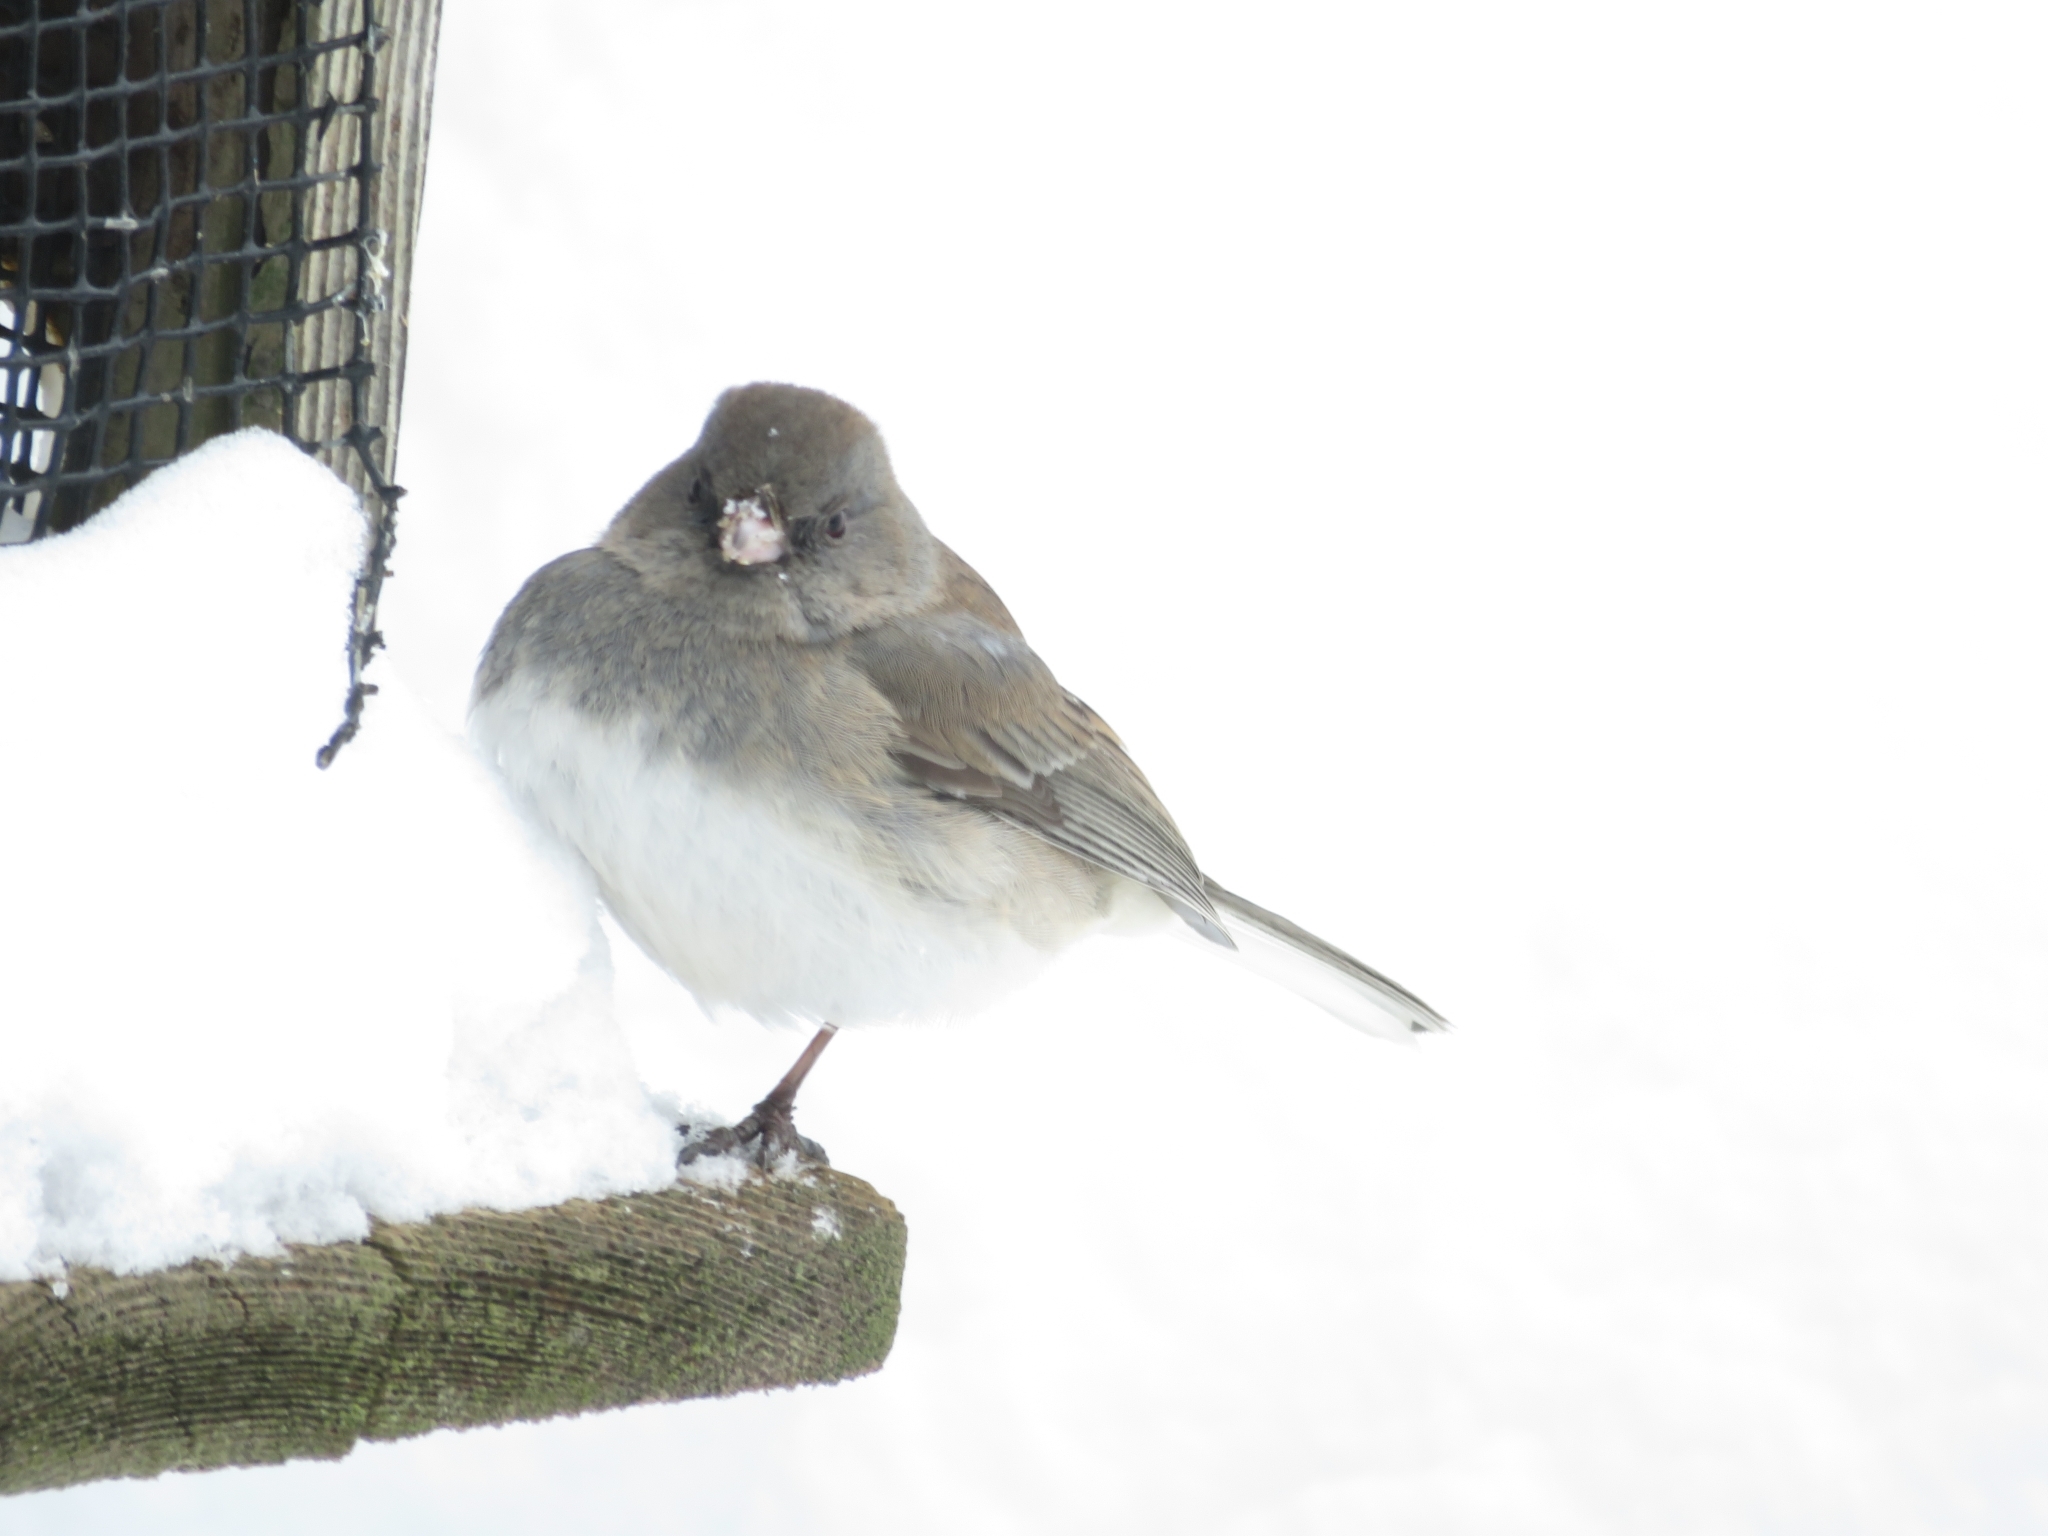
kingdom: Animalia
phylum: Chordata
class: Aves
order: Passeriformes
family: Passerellidae
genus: Junco
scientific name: Junco hyemalis
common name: Dark-eyed junco
